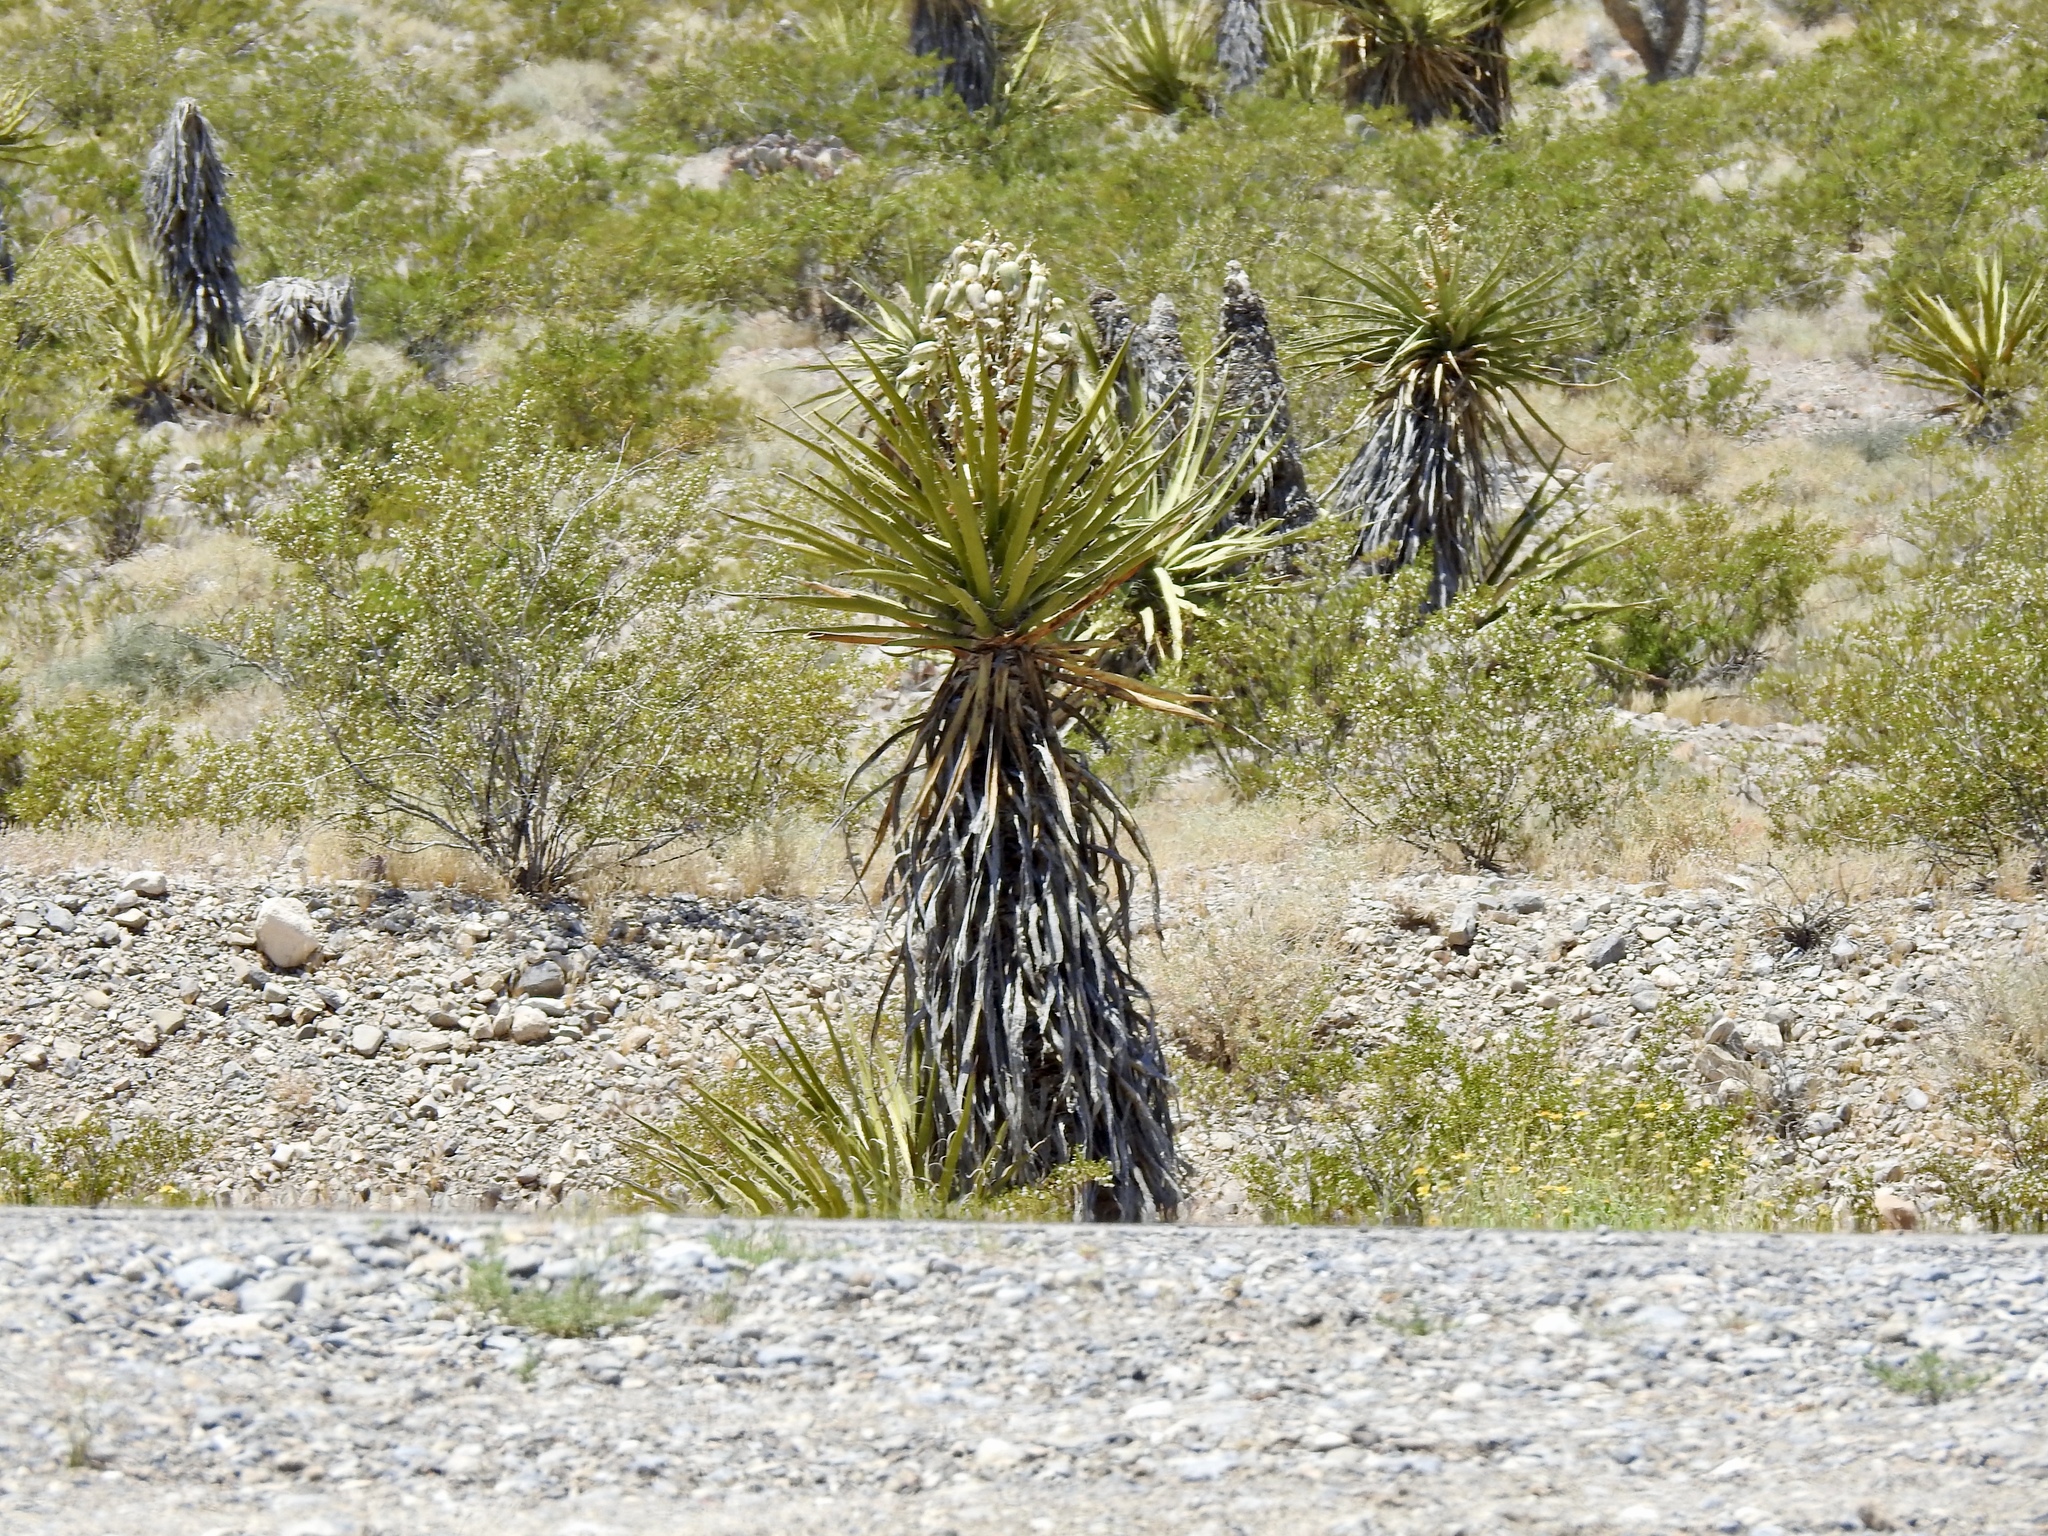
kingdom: Plantae
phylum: Tracheophyta
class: Liliopsida
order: Asparagales
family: Asparagaceae
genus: Yucca
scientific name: Yucca schidigera
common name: Mojave yucca
